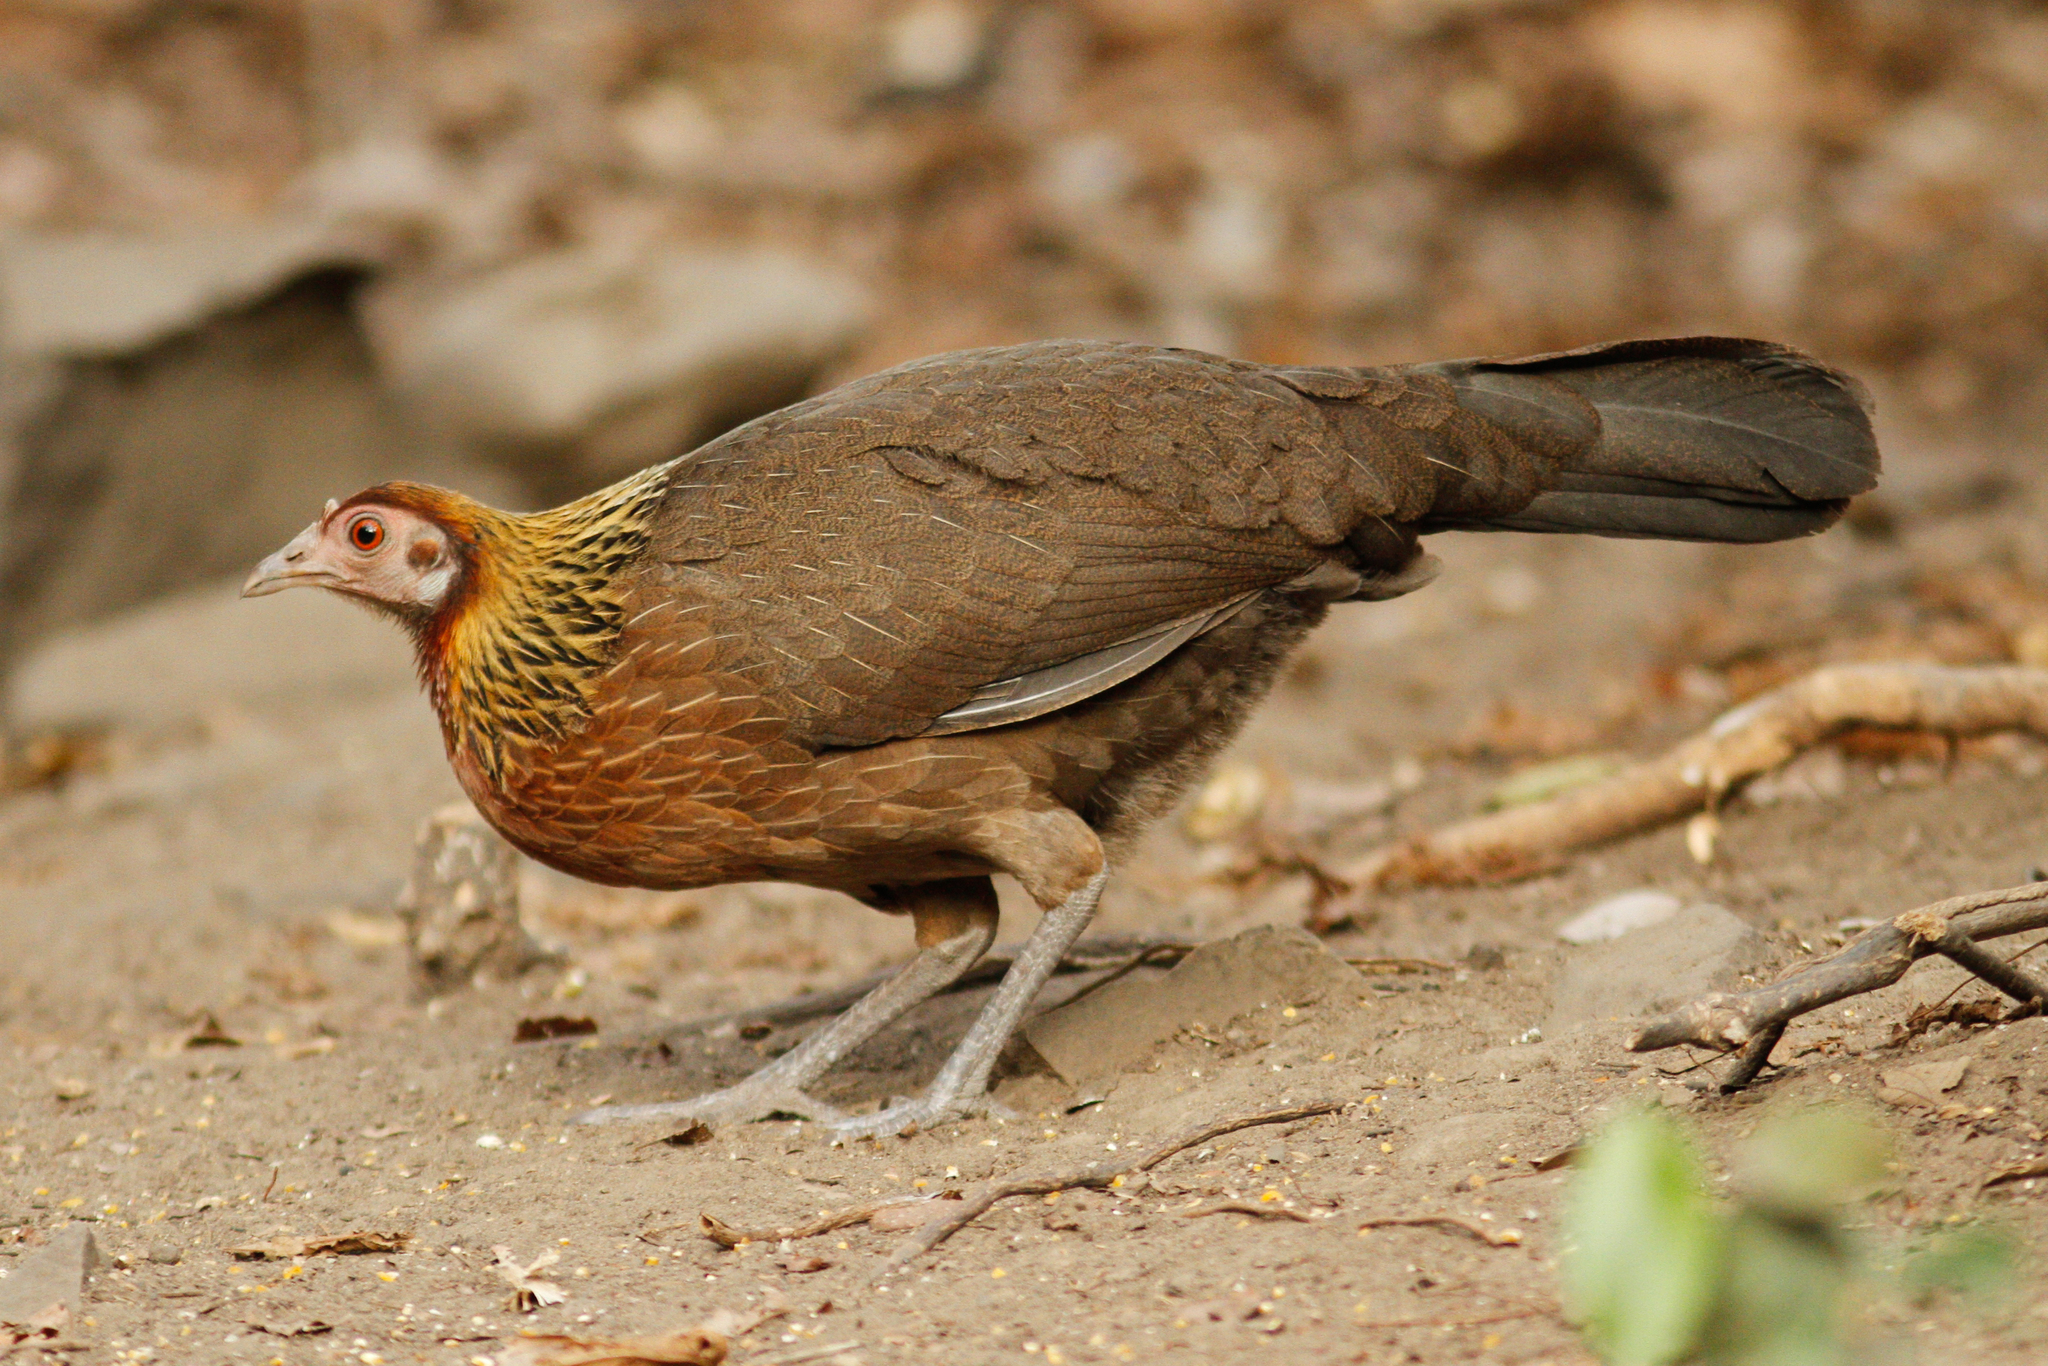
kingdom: Animalia
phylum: Chordata
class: Aves
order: Galliformes
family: Phasianidae
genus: Gallus
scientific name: Gallus gallus
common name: Red junglefowl
